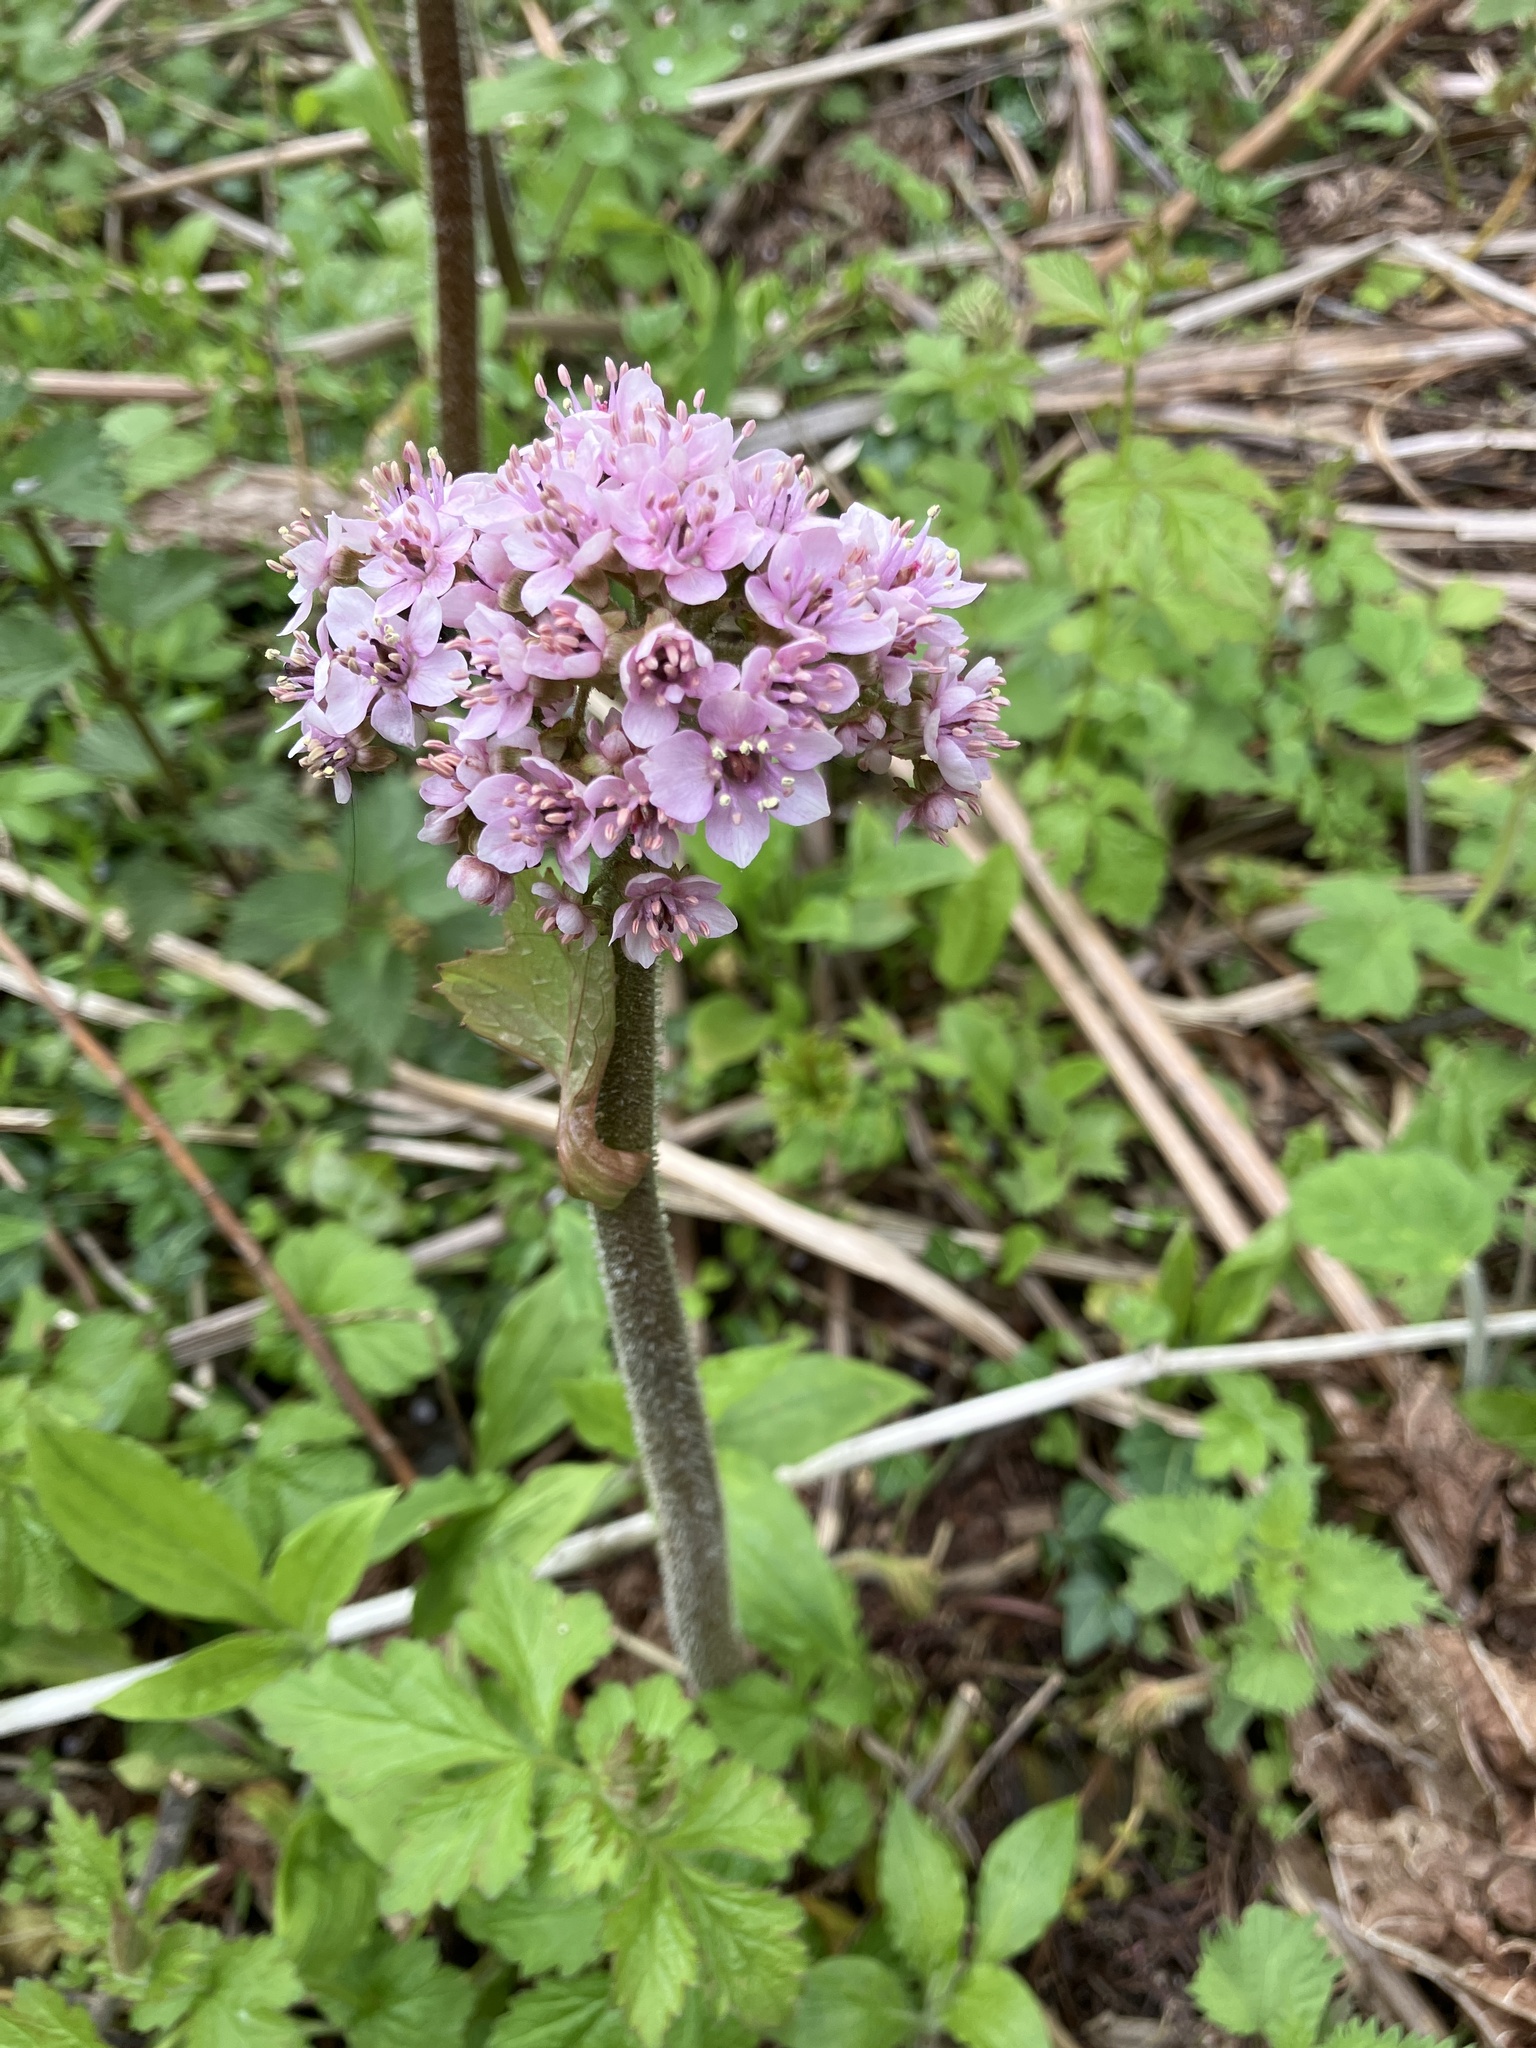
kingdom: Plantae
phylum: Tracheophyta
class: Magnoliopsida
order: Saxifragales
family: Saxifragaceae
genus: Darmera
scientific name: Darmera peltata
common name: Indian-rhubarb
